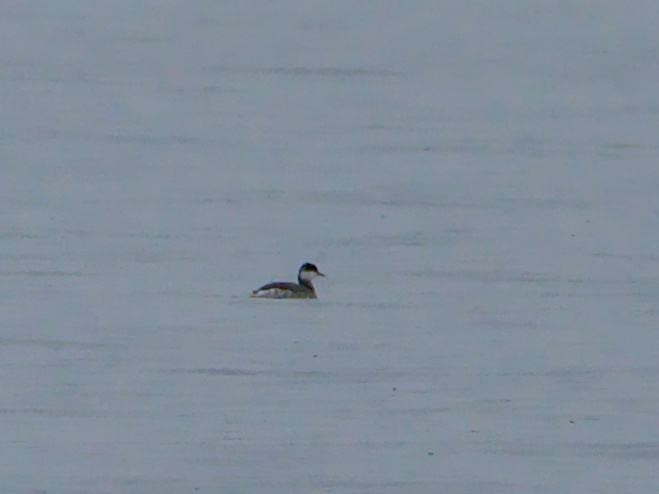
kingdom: Animalia
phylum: Chordata
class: Aves
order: Podicipediformes
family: Podicipedidae
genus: Podiceps
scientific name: Podiceps auritus
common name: Horned grebe
